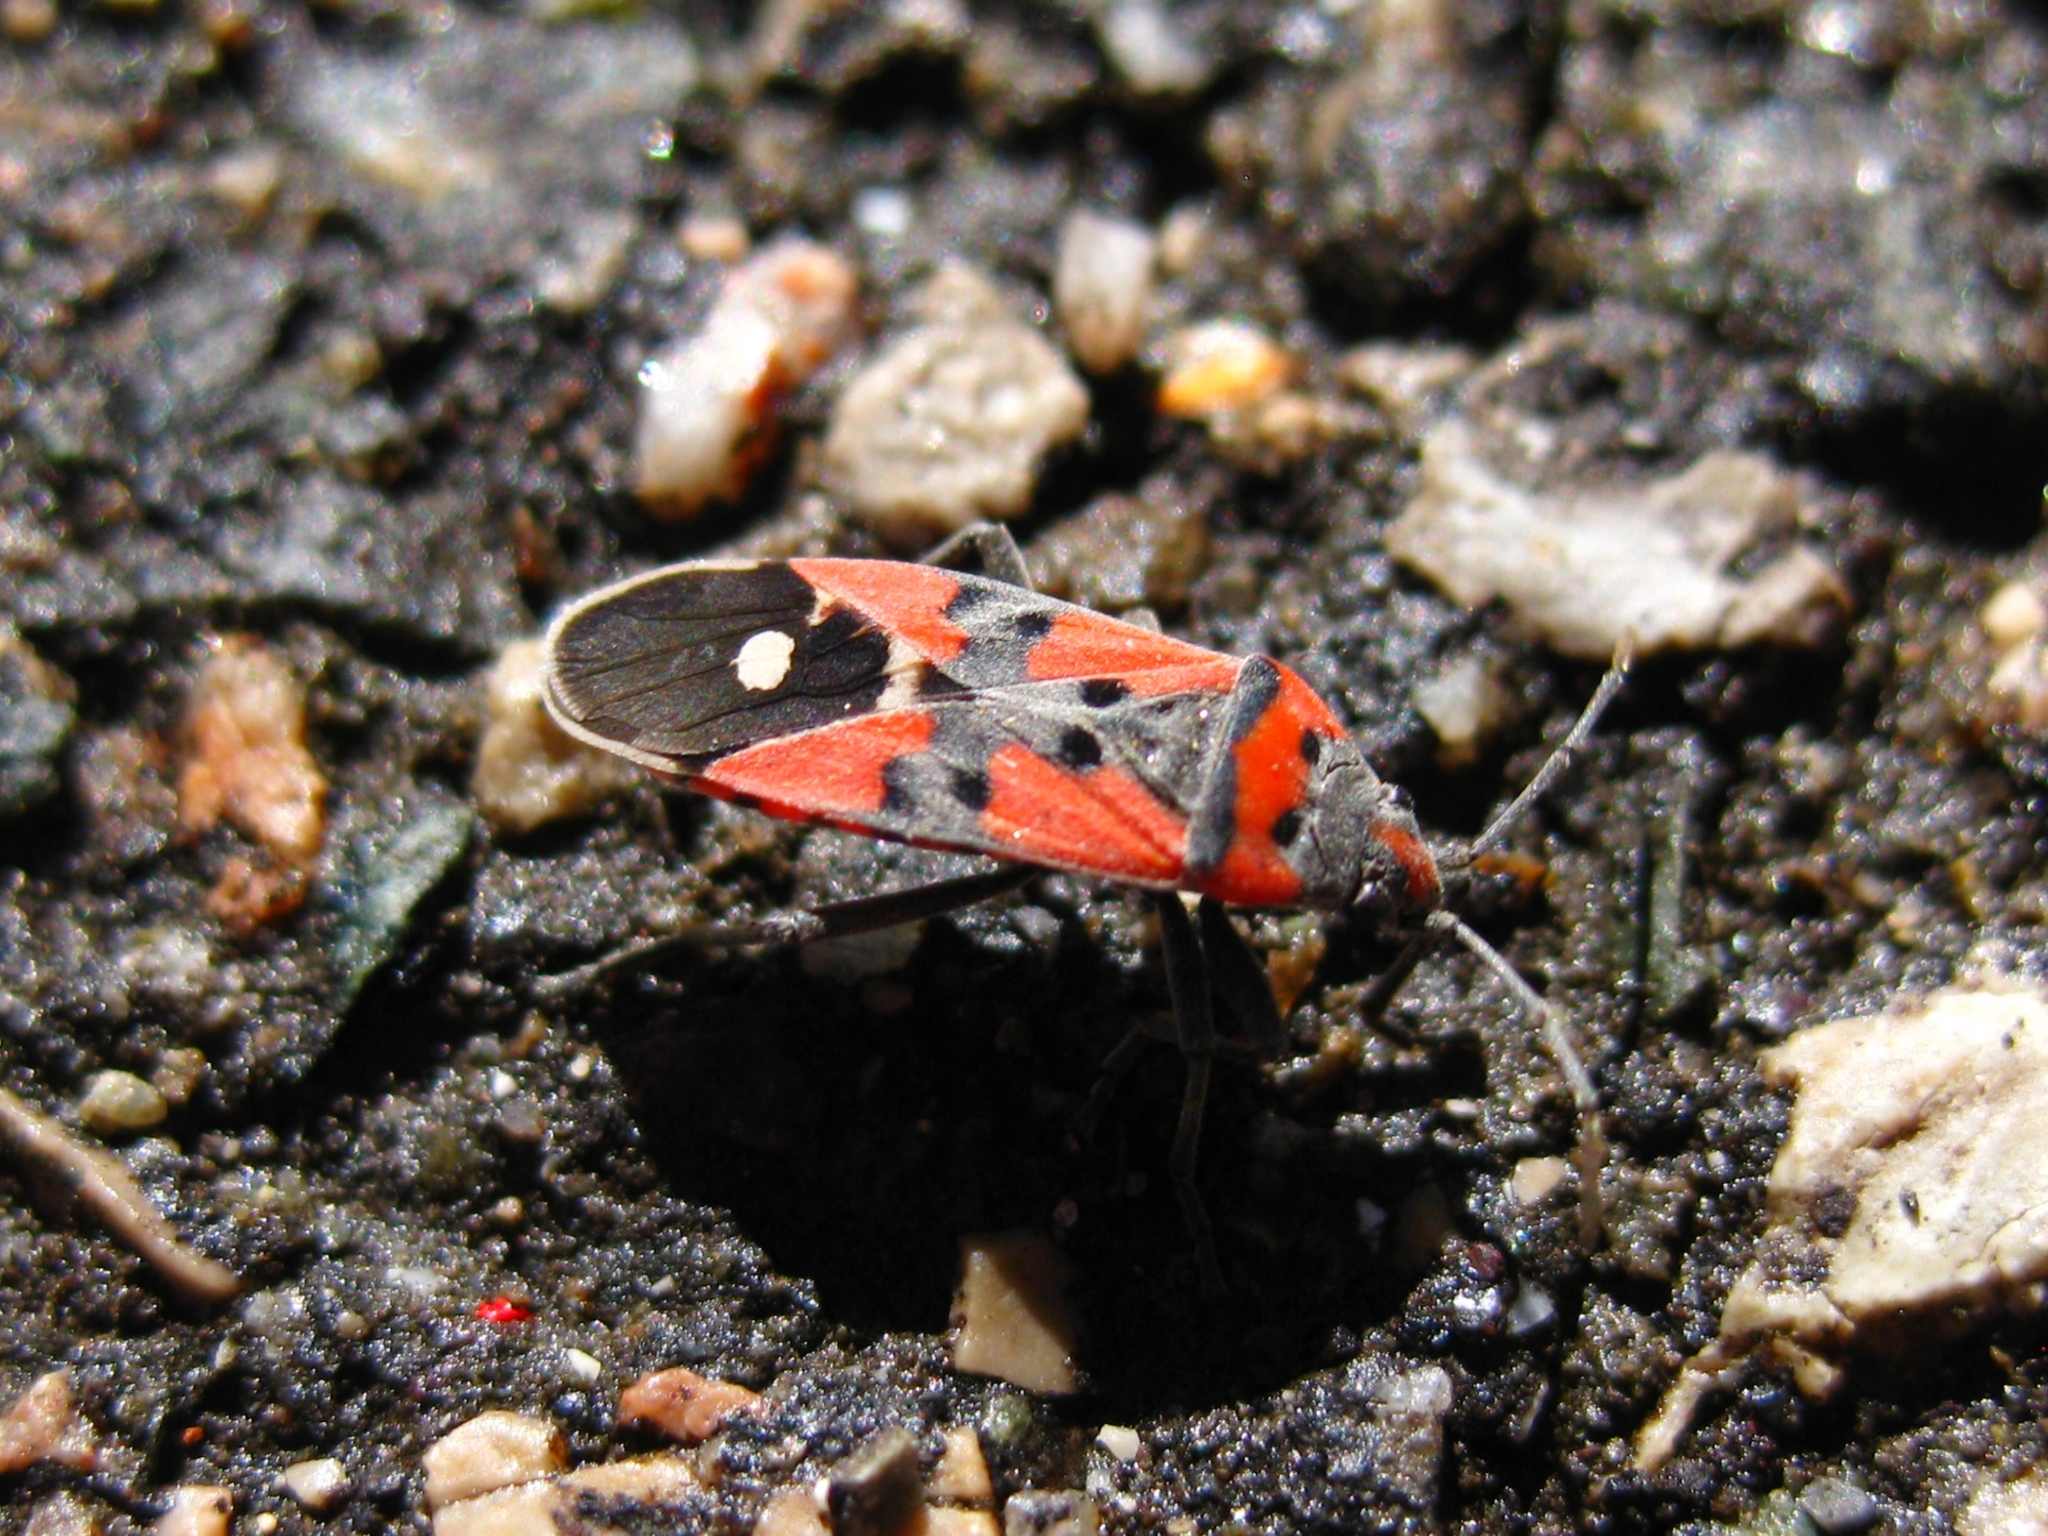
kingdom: Animalia
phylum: Arthropoda
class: Insecta
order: Hemiptera
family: Lygaeidae
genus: Lygaeus
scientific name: Lygaeus equestris
